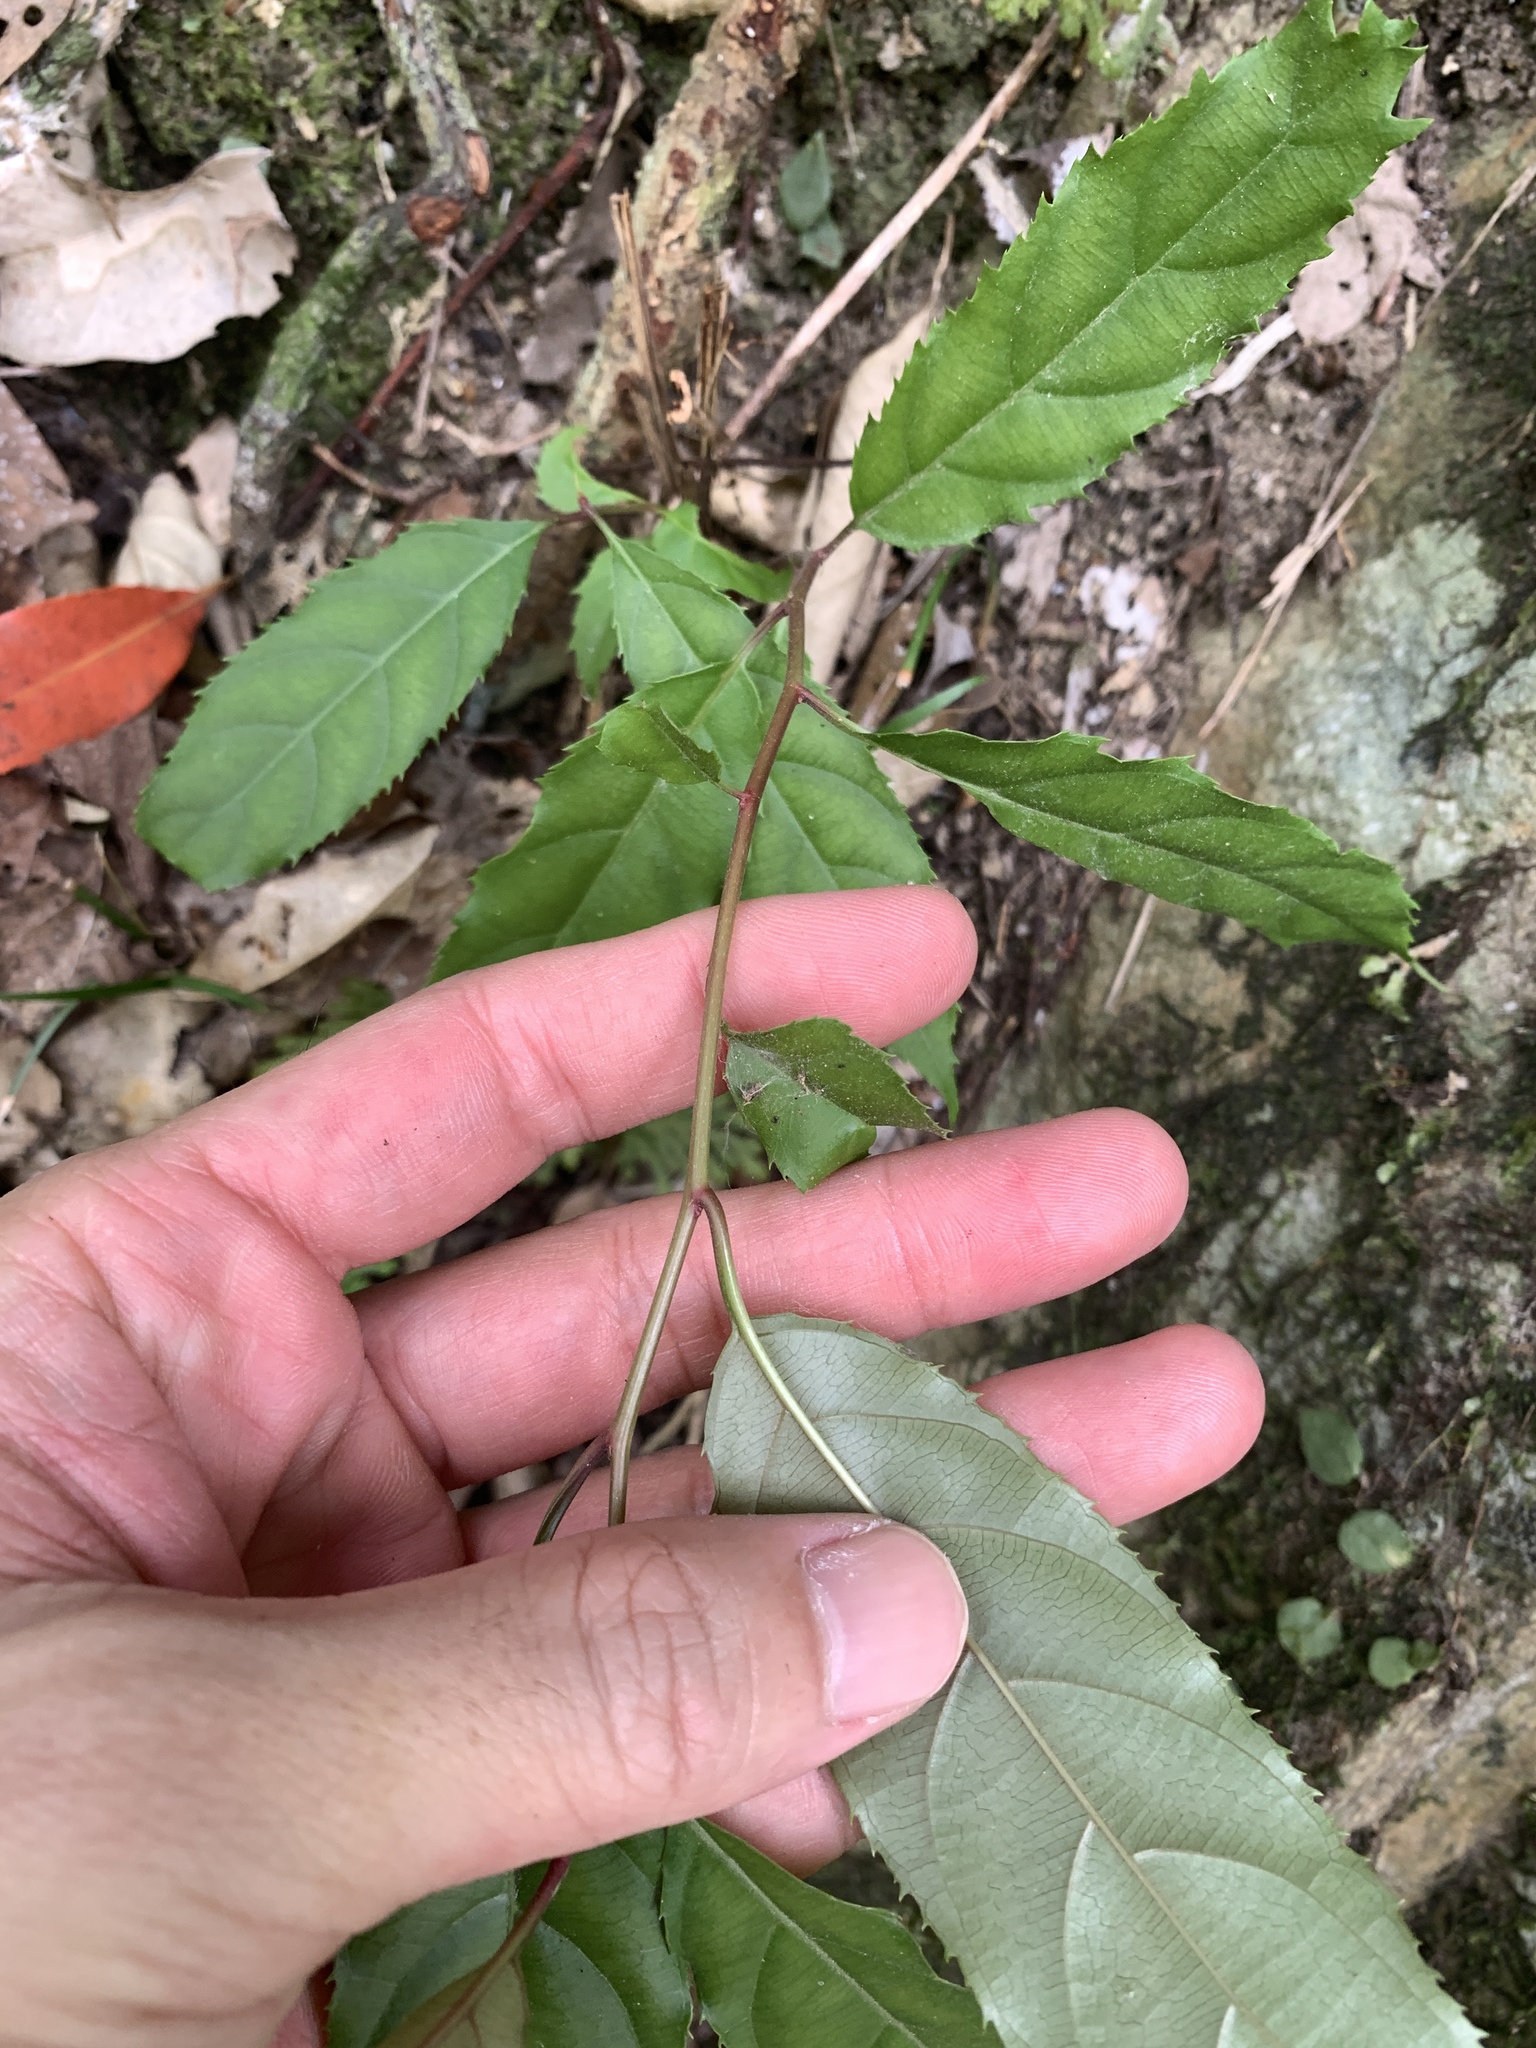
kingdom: Plantae
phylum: Tracheophyta
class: Magnoliopsida
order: Saxifragales
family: Iteaceae
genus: Itea
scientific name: Itea parviflora
